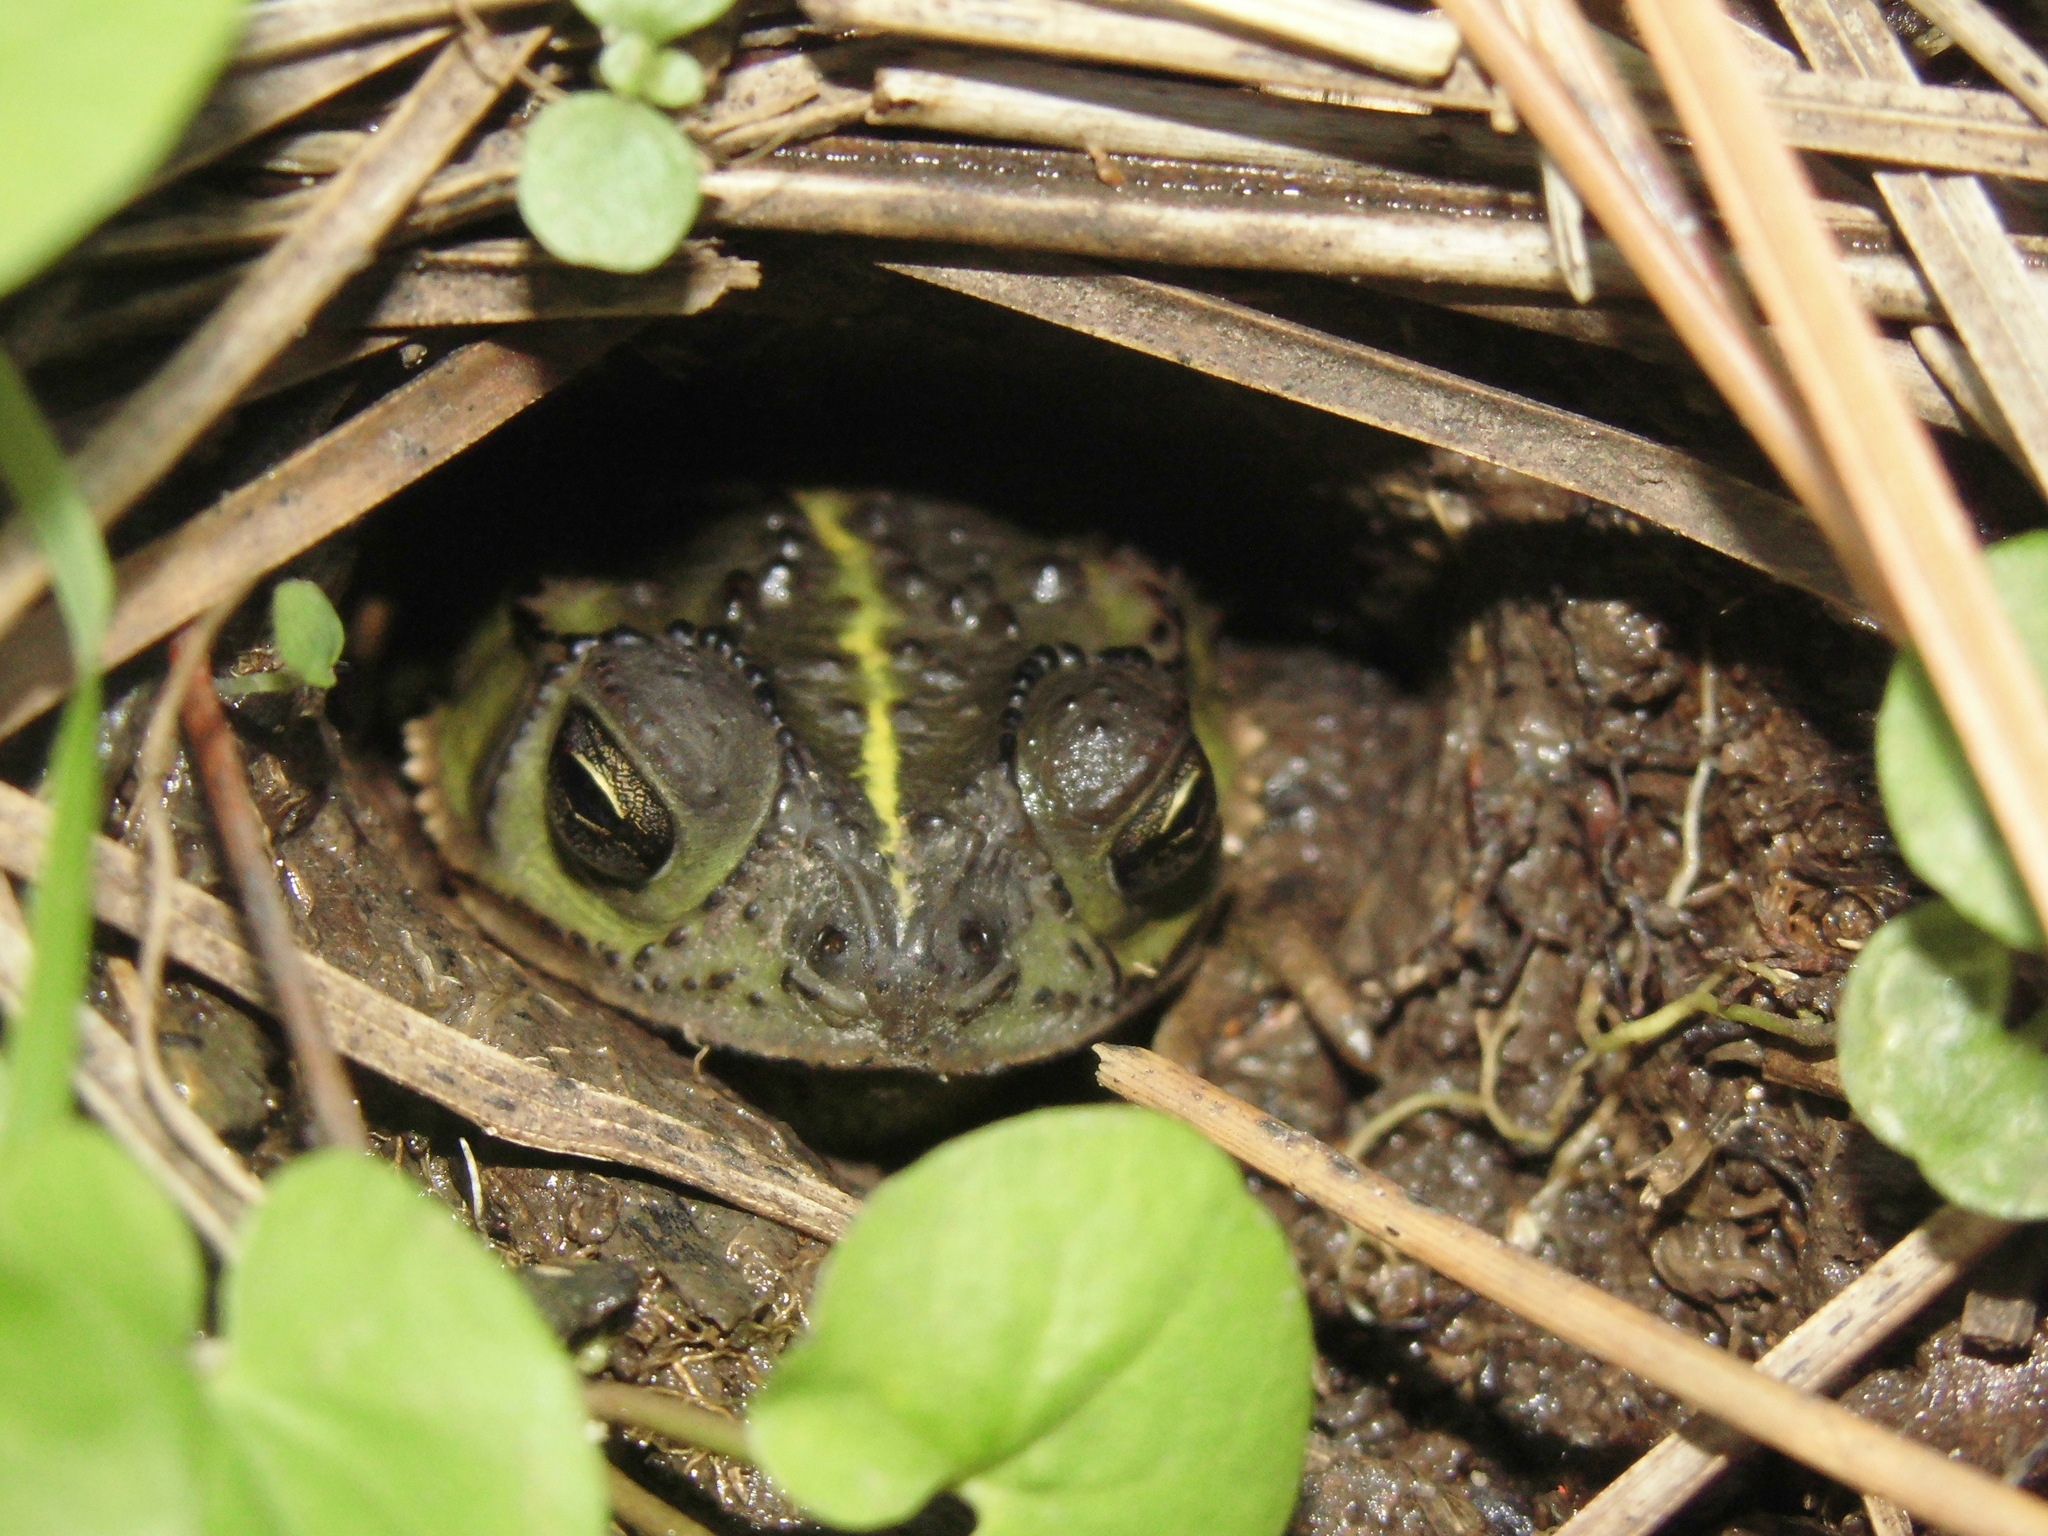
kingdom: Animalia
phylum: Chordata
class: Amphibia
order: Anura
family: Bufonidae
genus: Rhinella
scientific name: Rhinella dorbignyi
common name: D´orbigny’s toad
